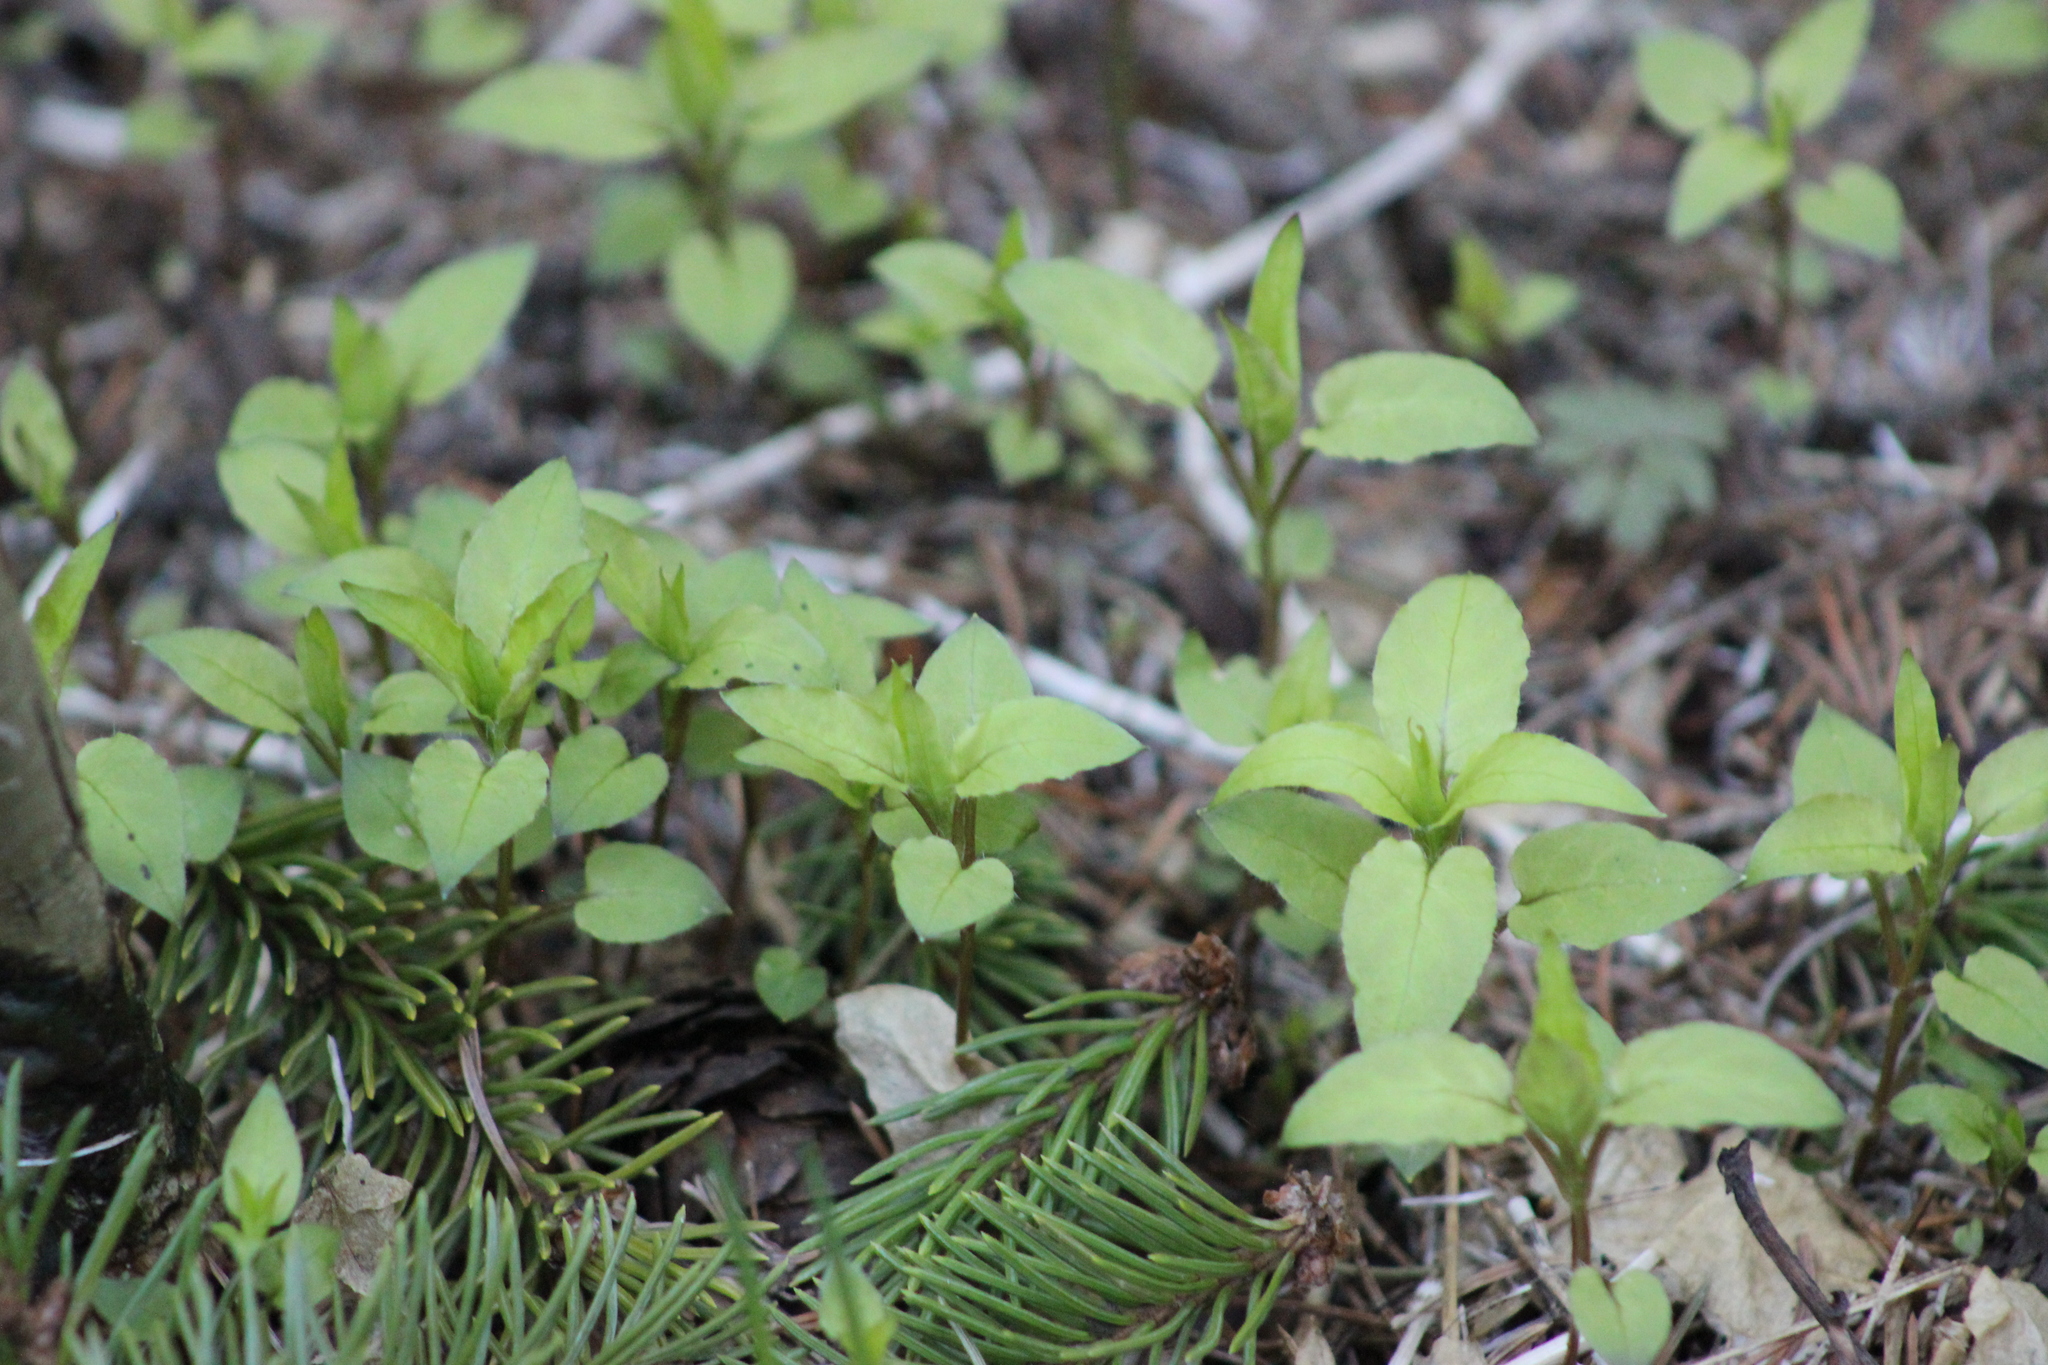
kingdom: Plantae
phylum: Tracheophyta
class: Magnoliopsida
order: Caryophyllales
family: Caryophyllaceae
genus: Stellaria
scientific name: Stellaria bungeana
